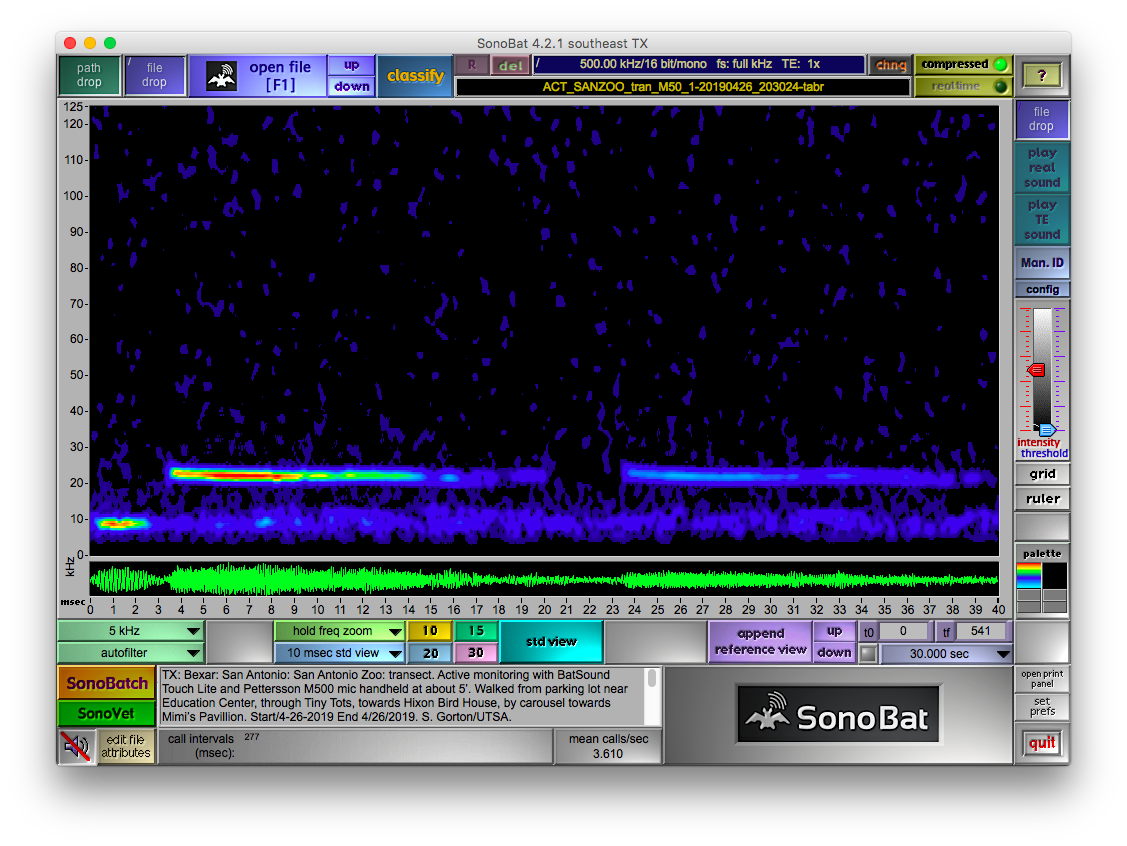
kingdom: Animalia
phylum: Chordata
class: Mammalia
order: Chiroptera
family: Molossidae
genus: Tadarida
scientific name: Tadarida brasiliensis
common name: Mexican free-tailed bat
